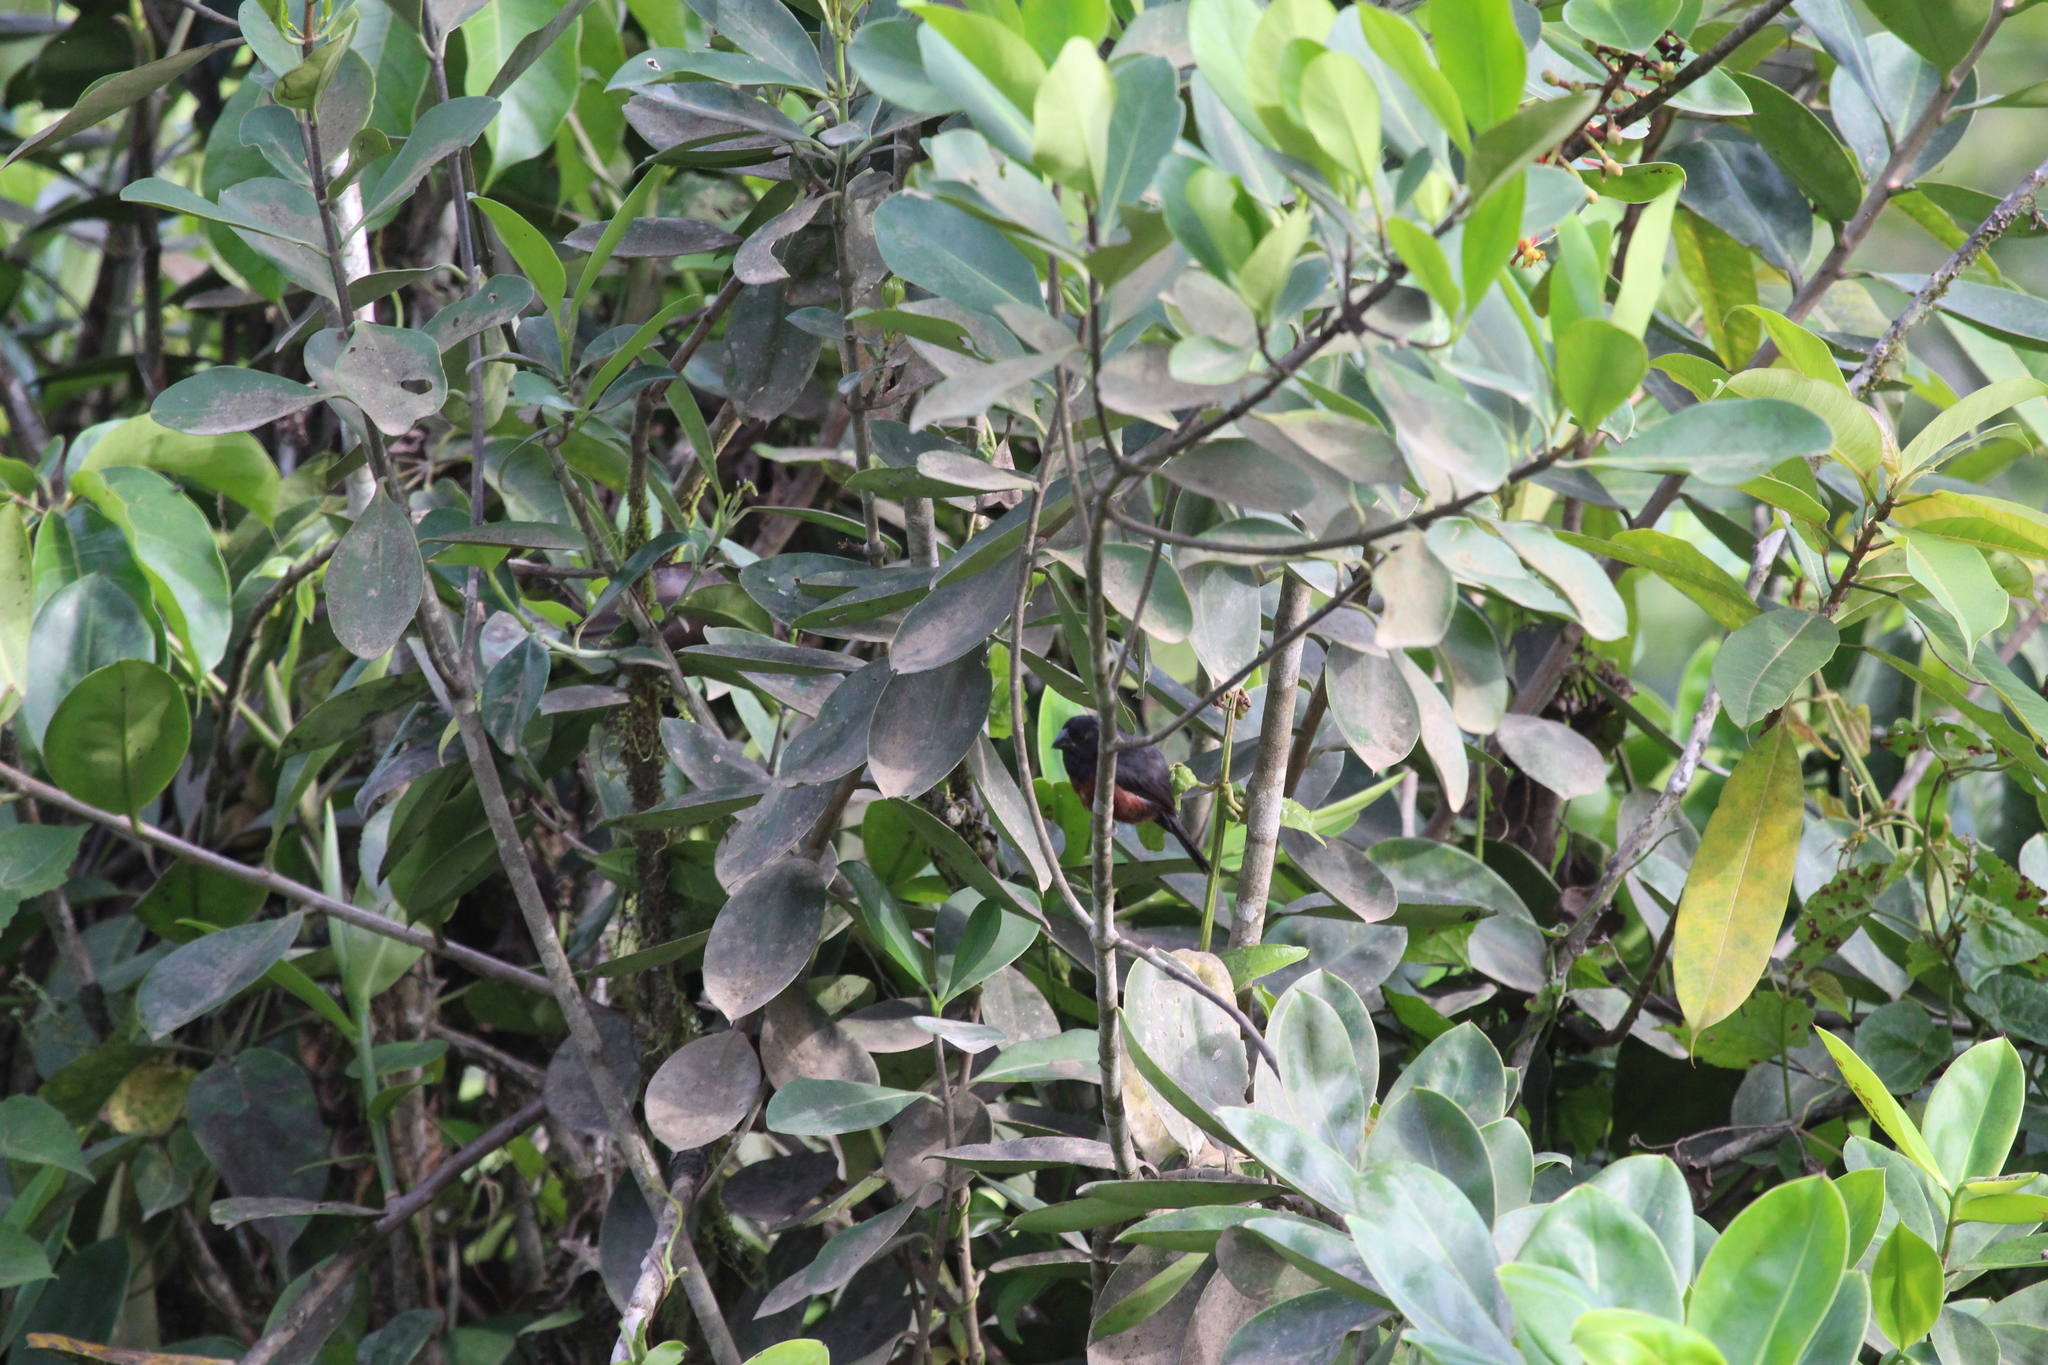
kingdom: Animalia
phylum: Chordata
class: Aves
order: Passeriformes
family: Thraupidae
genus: Sporophila
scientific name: Sporophila angolensis
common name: Chestnut-bellied seed-finch
